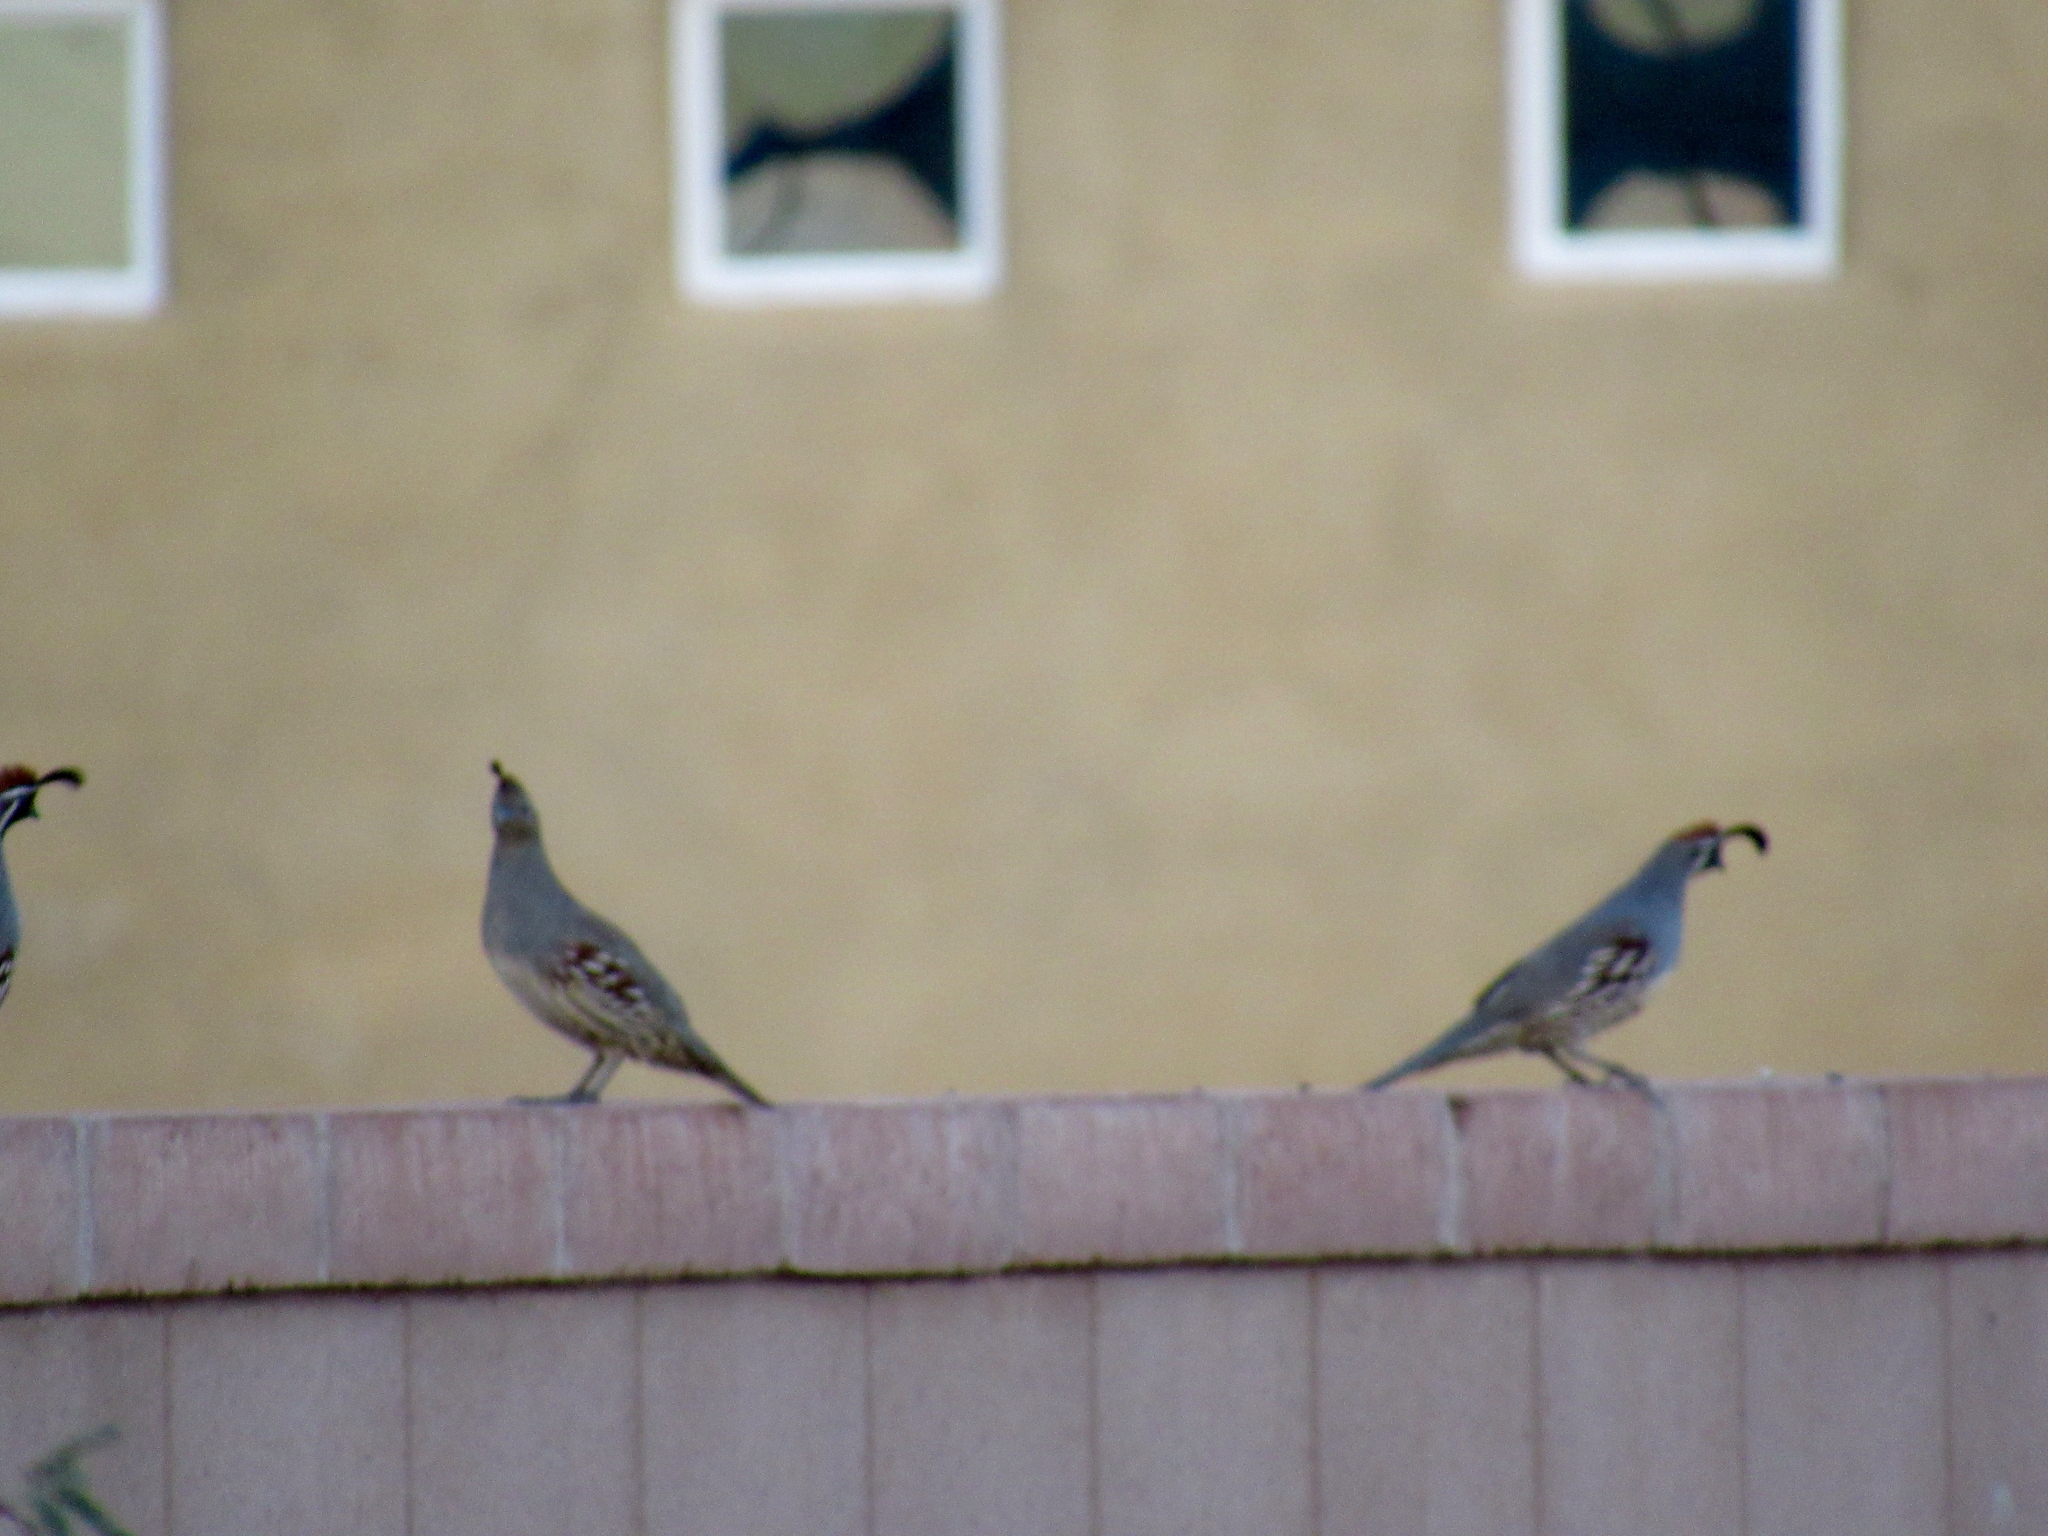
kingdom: Animalia
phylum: Chordata
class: Aves
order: Galliformes
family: Odontophoridae
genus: Callipepla
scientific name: Callipepla gambelii
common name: Gambel's quail
